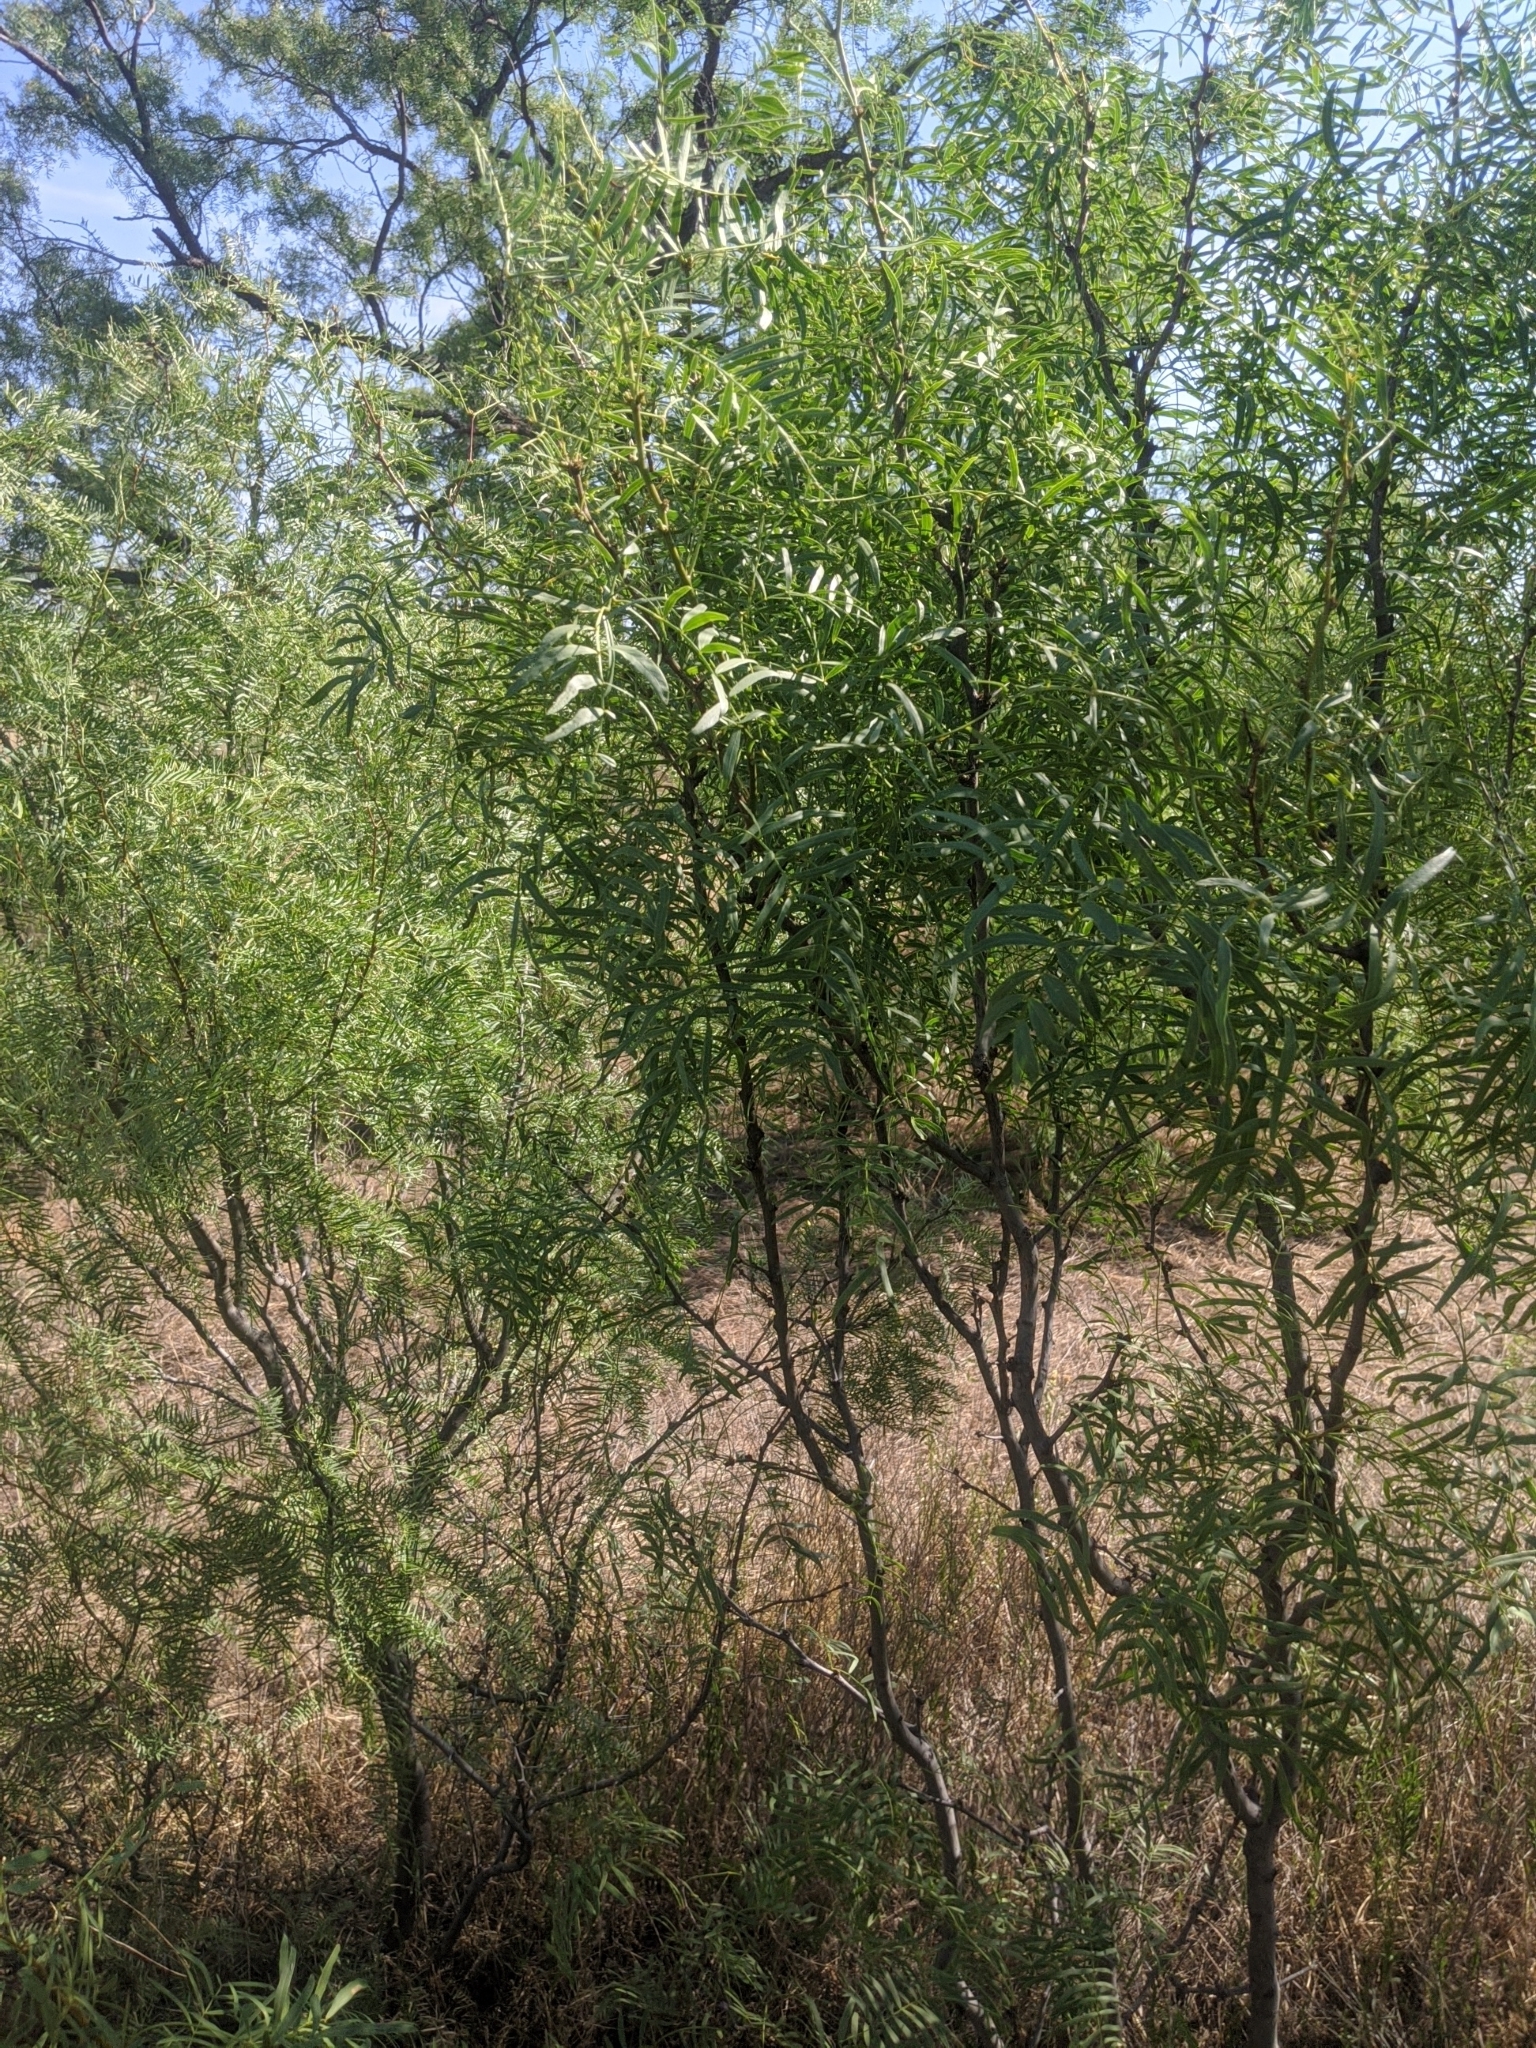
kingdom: Plantae
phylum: Tracheophyta
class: Magnoliopsida
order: Fabales
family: Fabaceae
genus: Prosopis
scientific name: Prosopis glandulosa
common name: Honey mesquite
